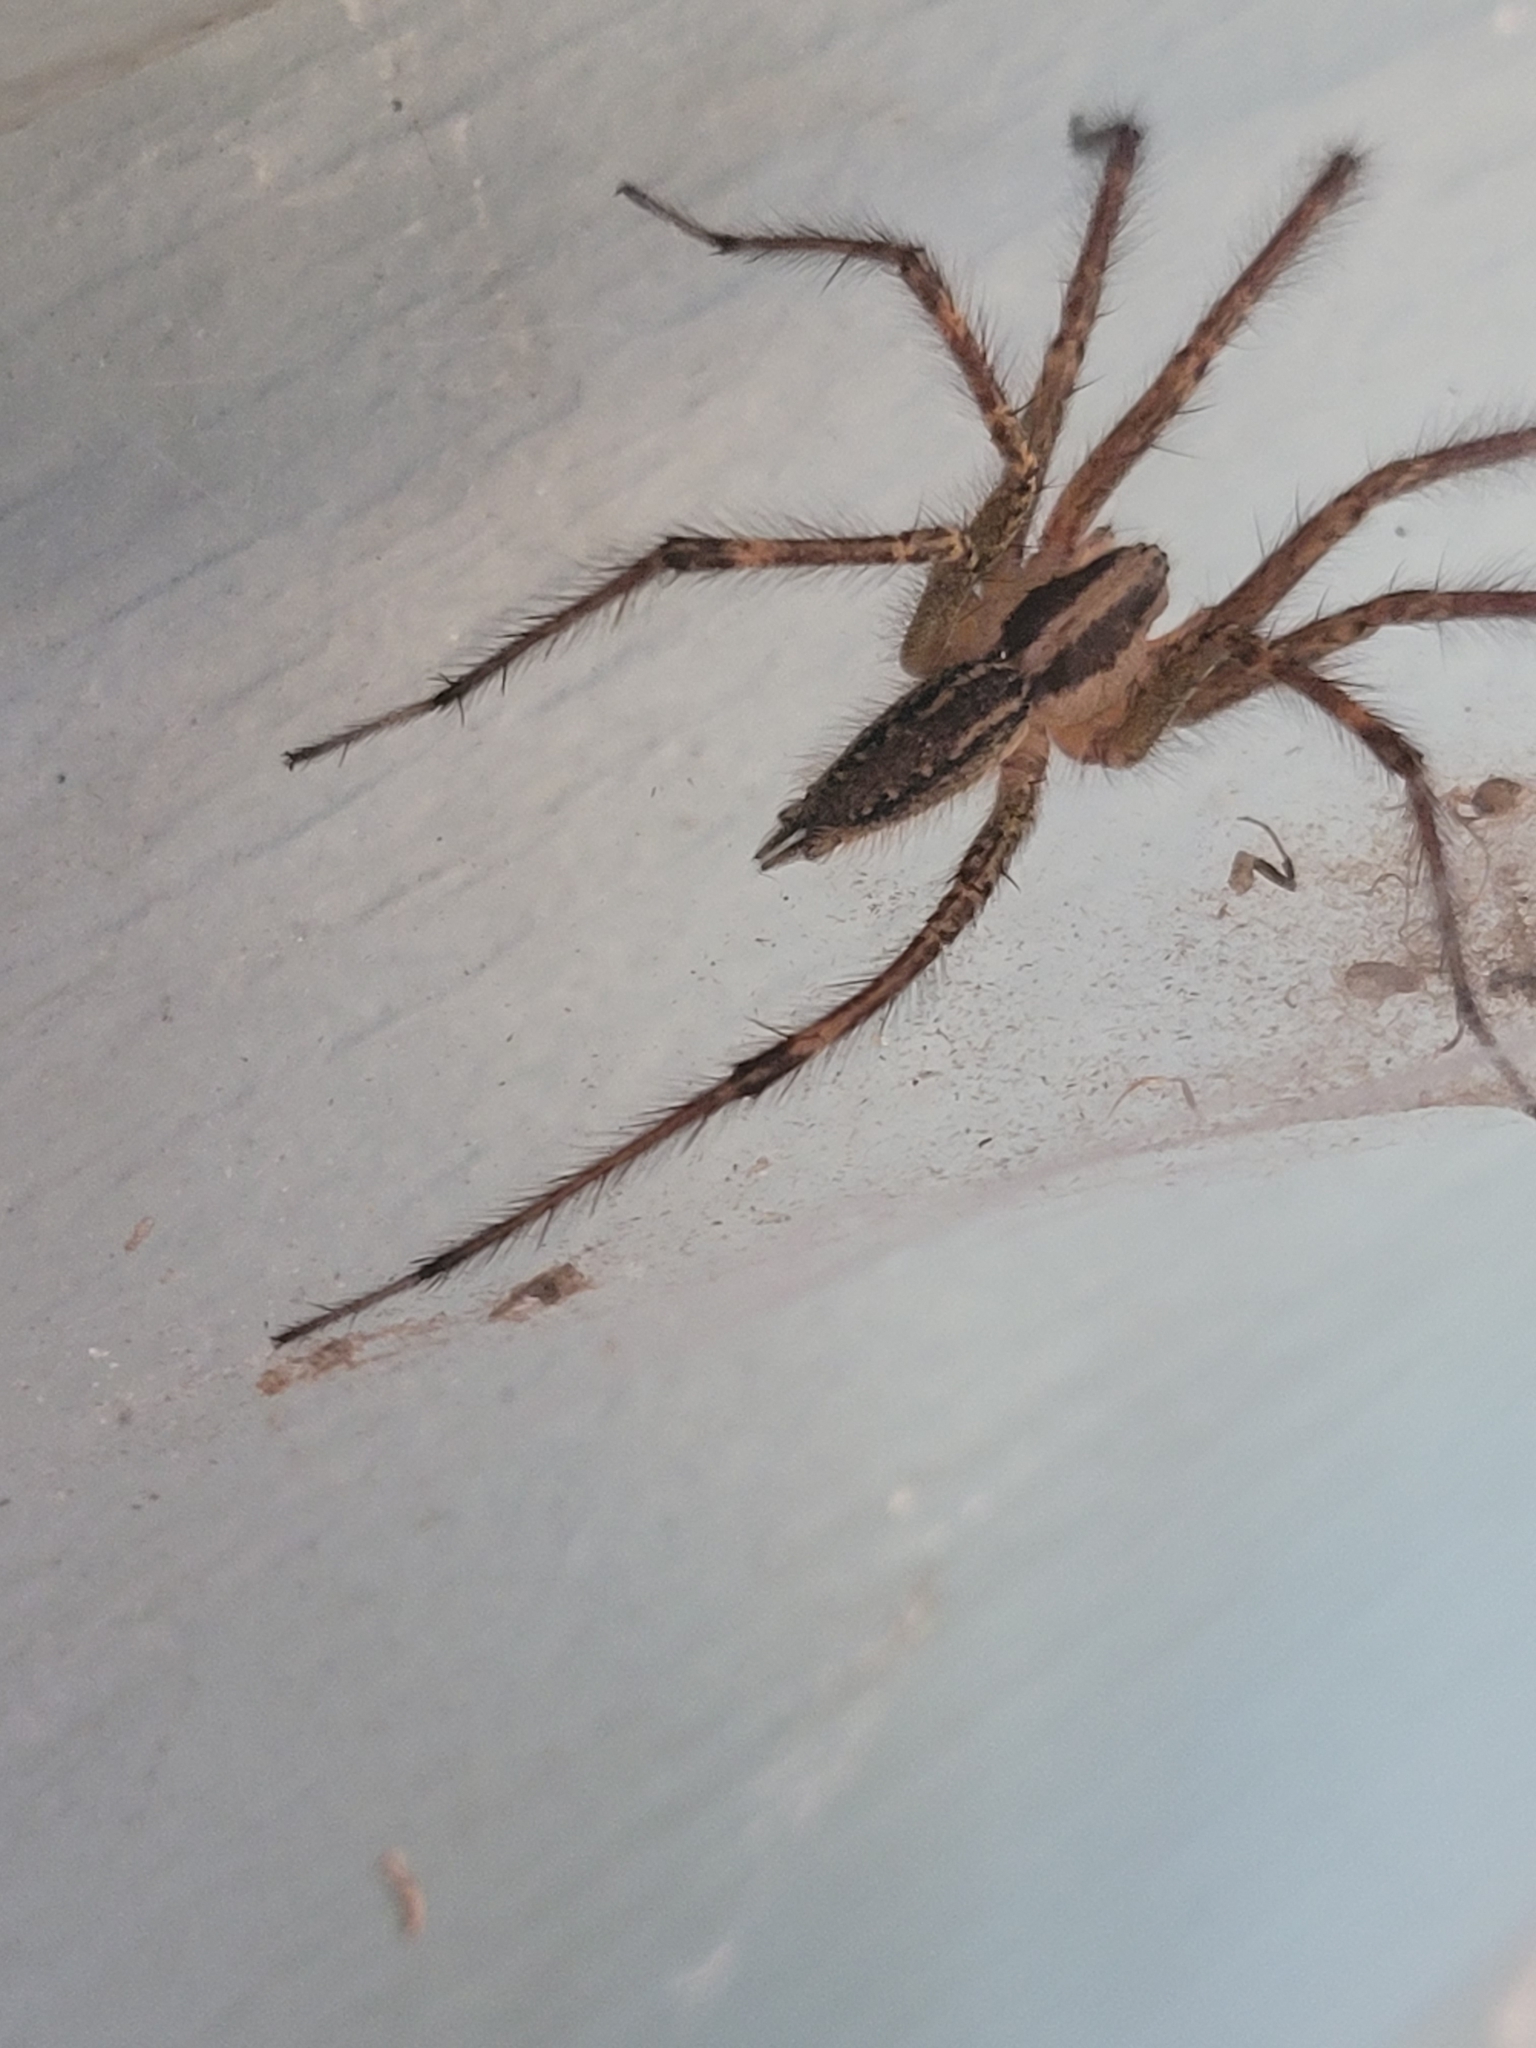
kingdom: Animalia
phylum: Arthropoda
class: Arachnida
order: Araneae
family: Agelenidae
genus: Agelenopsis
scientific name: Agelenopsis
